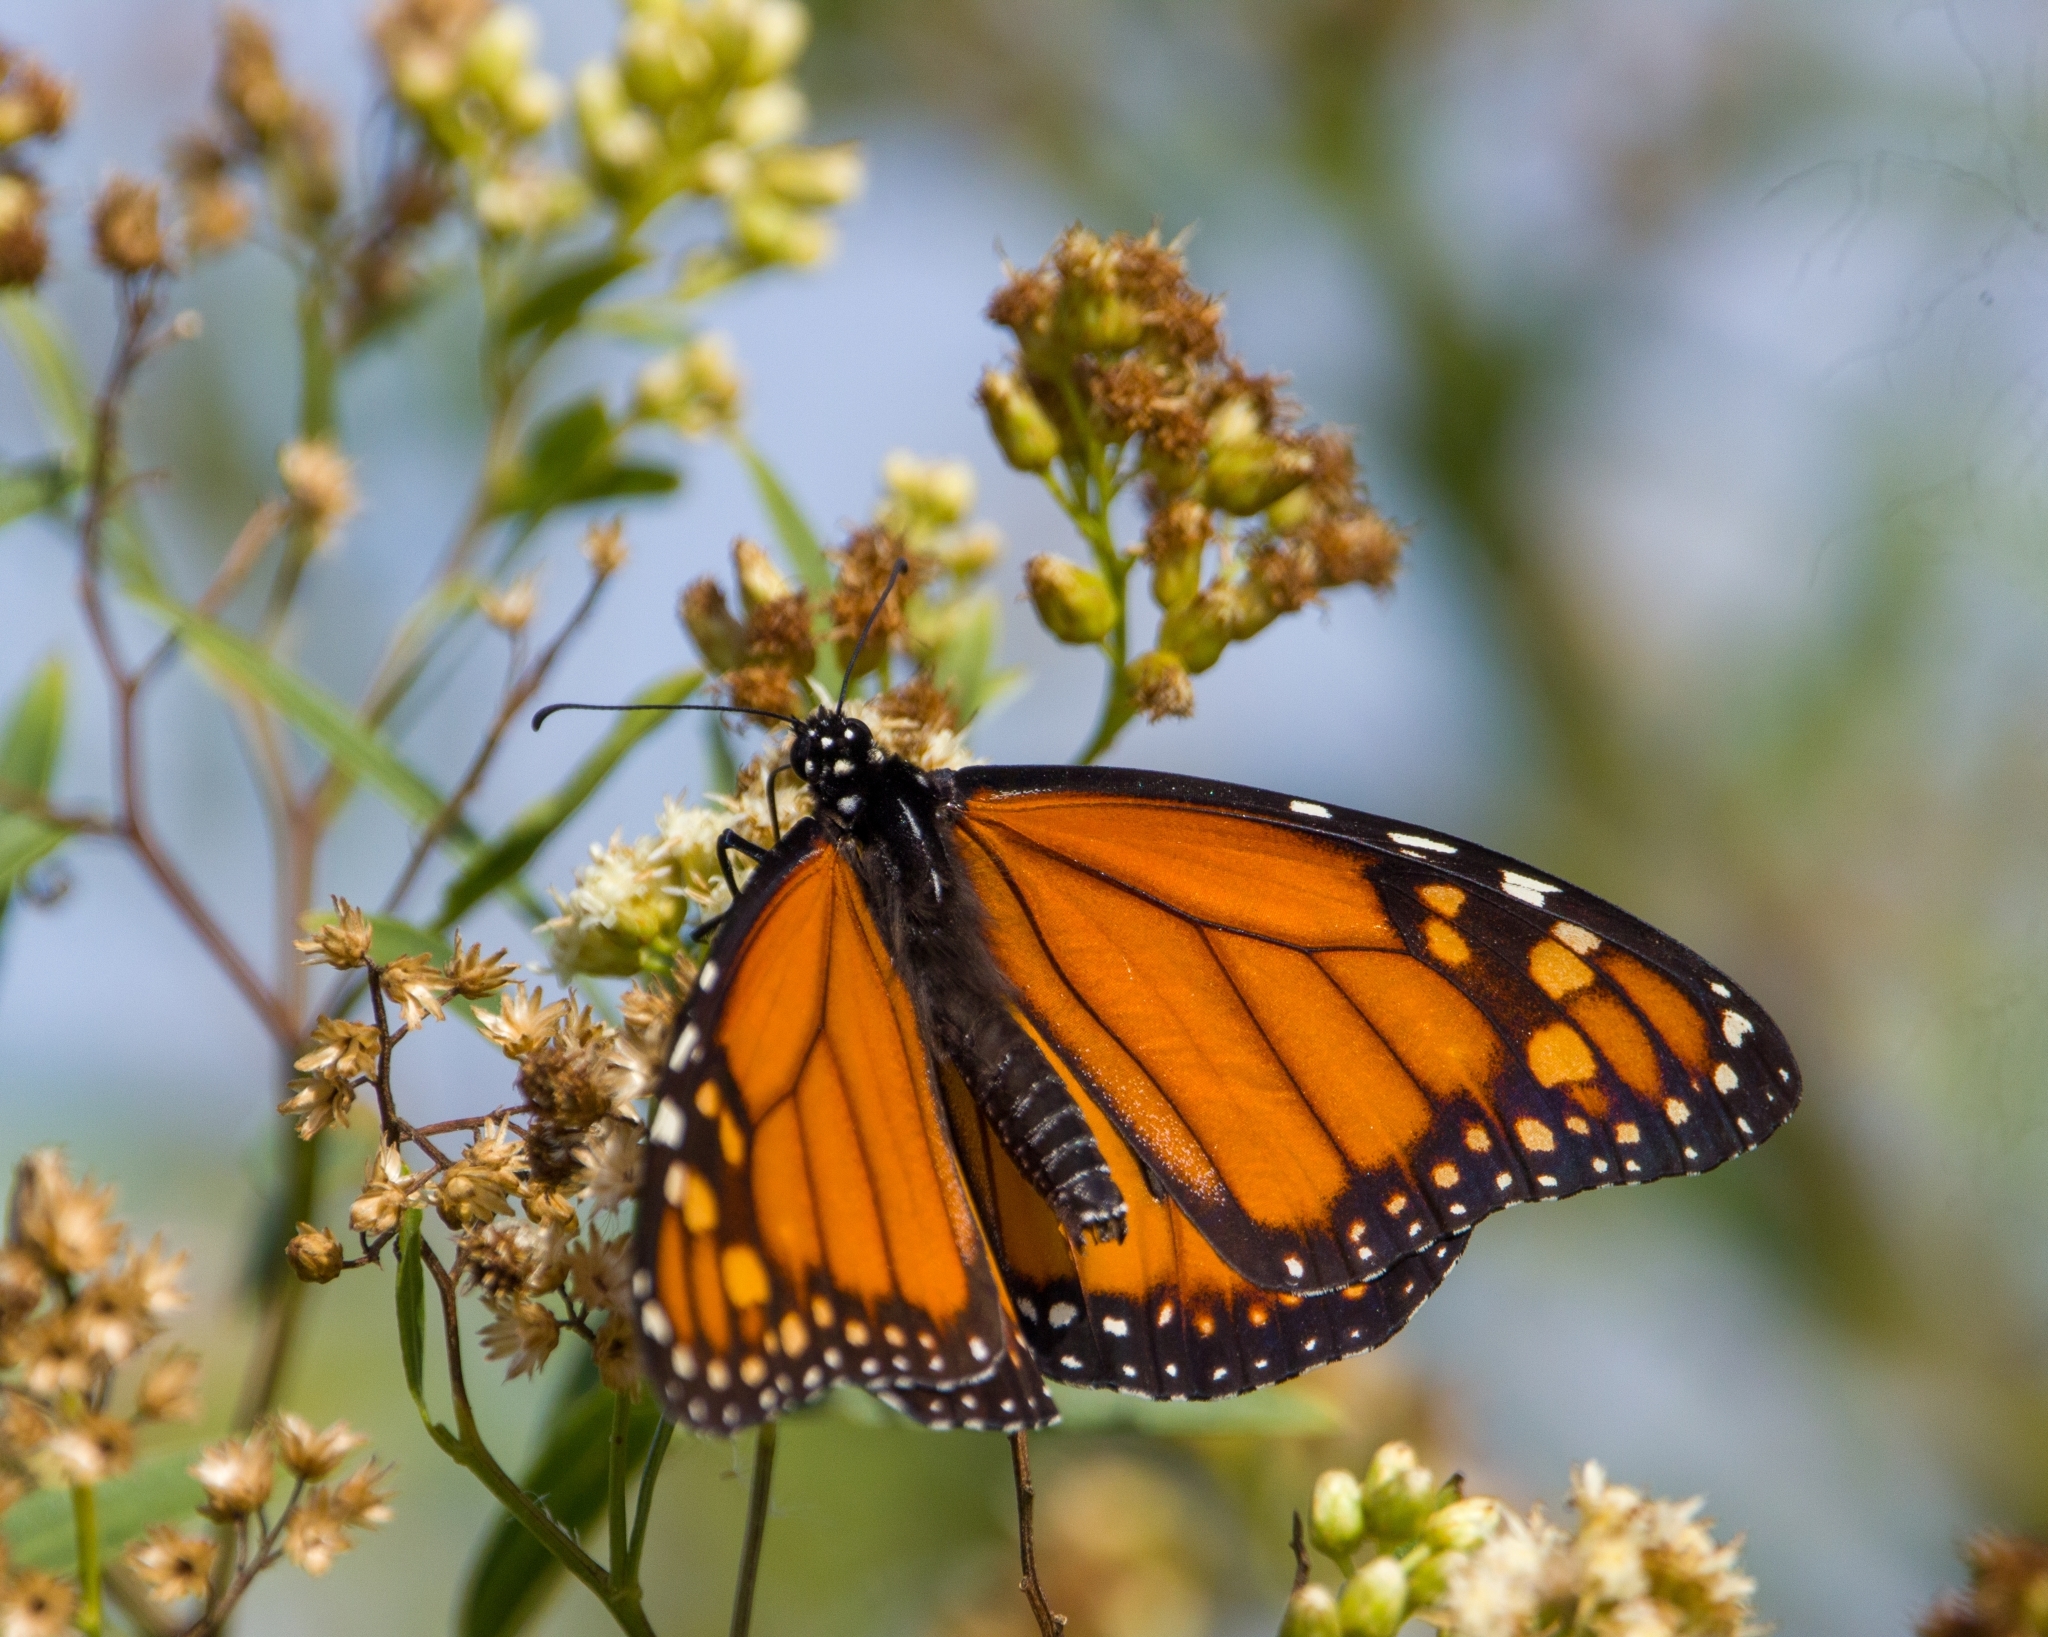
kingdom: Animalia
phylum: Arthropoda
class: Insecta
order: Lepidoptera
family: Nymphalidae
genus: Danaus
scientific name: Danaus erippus
